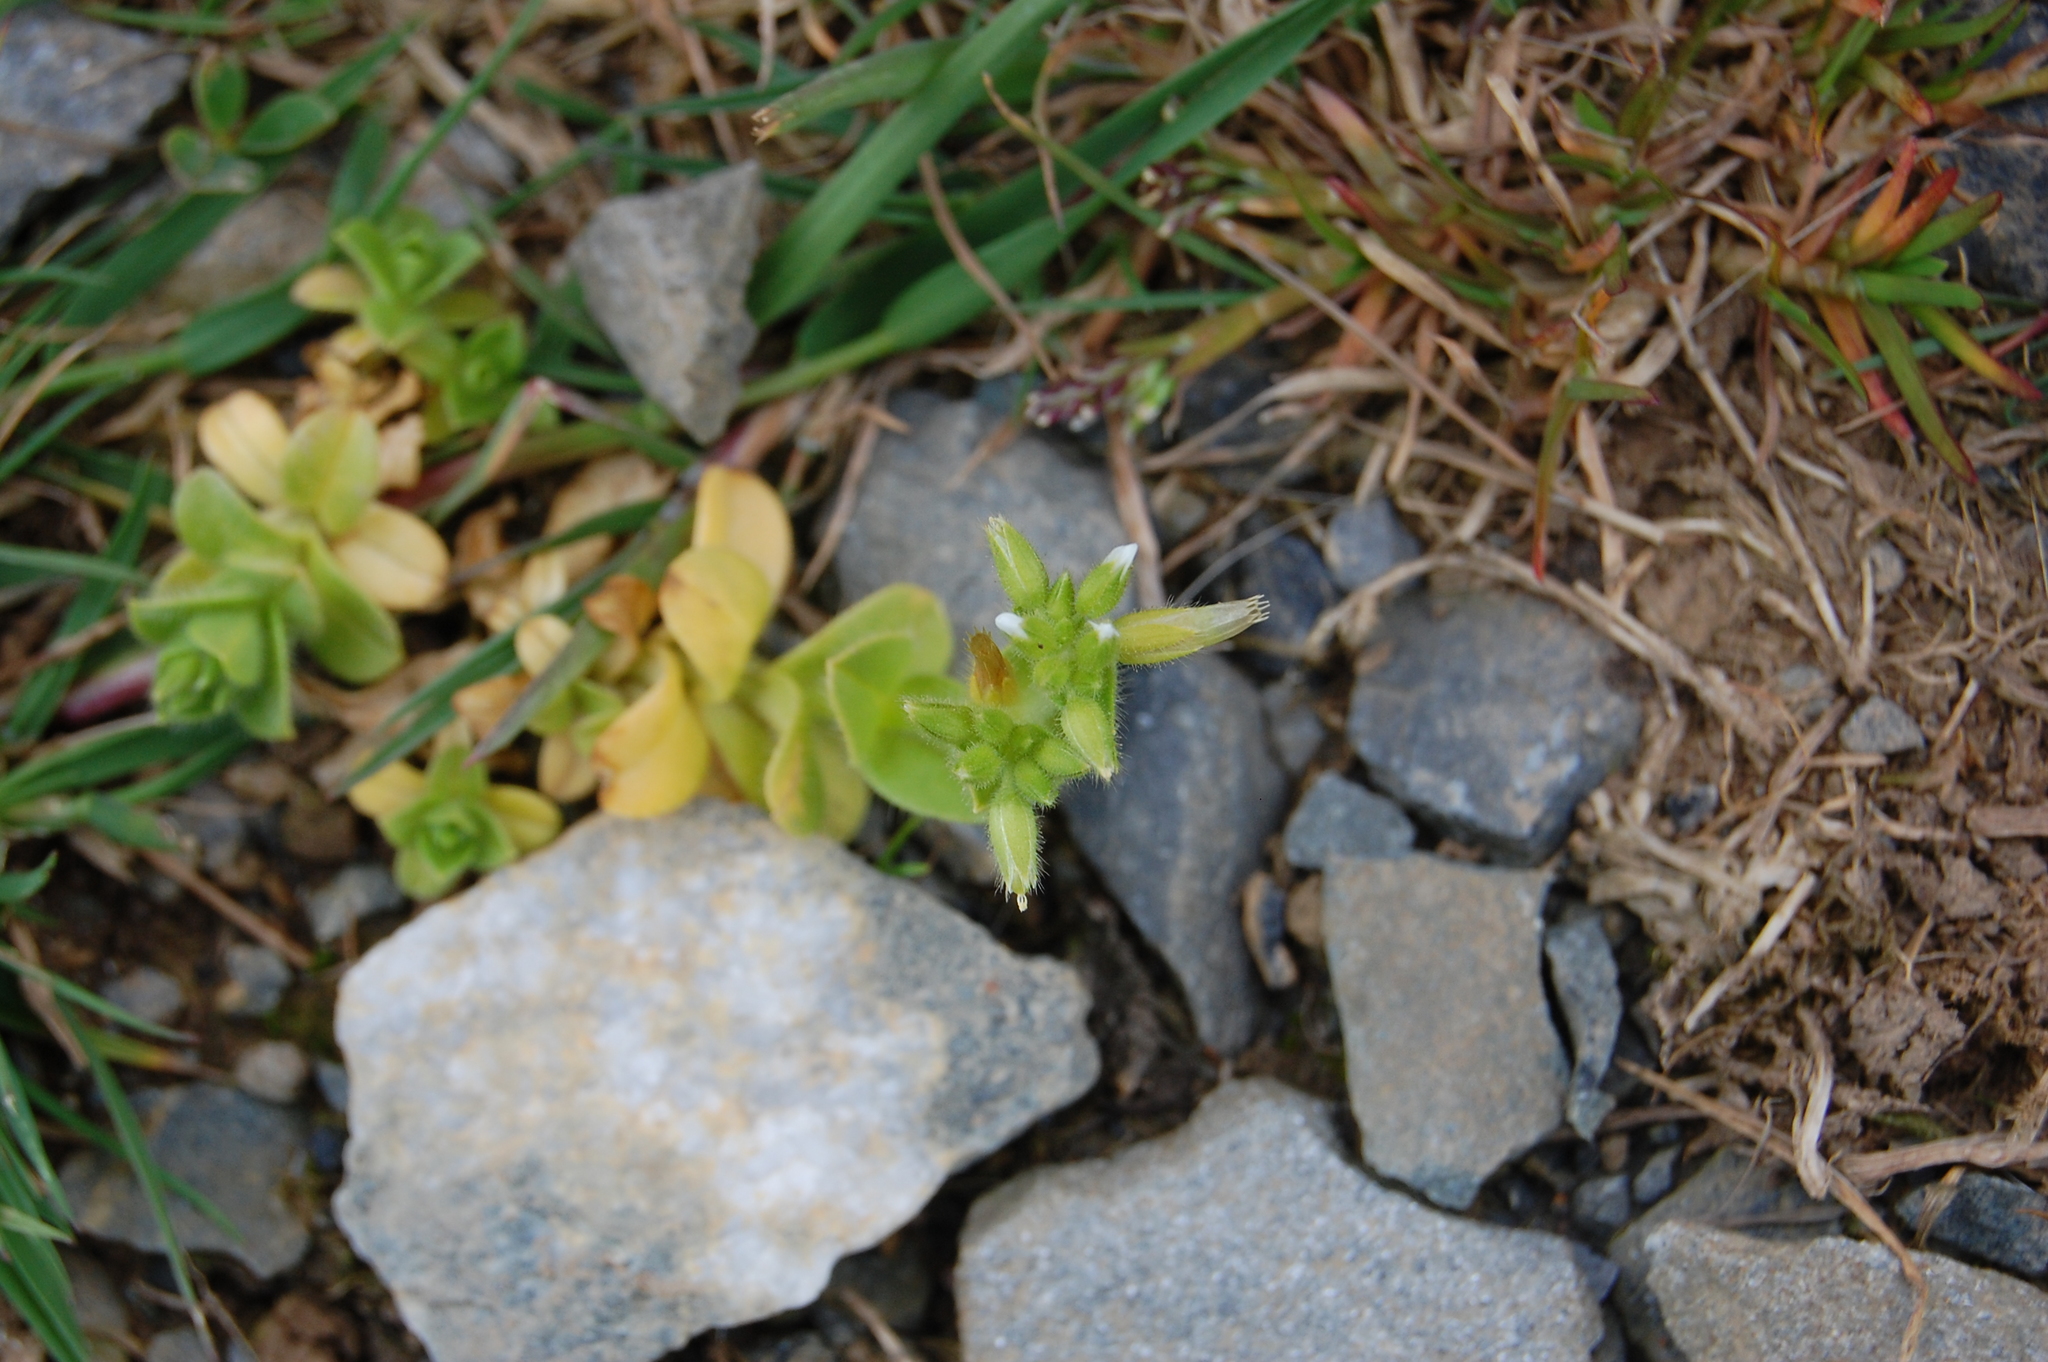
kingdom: Plantae
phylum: Tracheophyta
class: Magnoliopsida
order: Caryophyllales
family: Caryophyllaceae
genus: Cerastium
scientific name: Cerastium glomeratum
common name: Sticky chickweed
